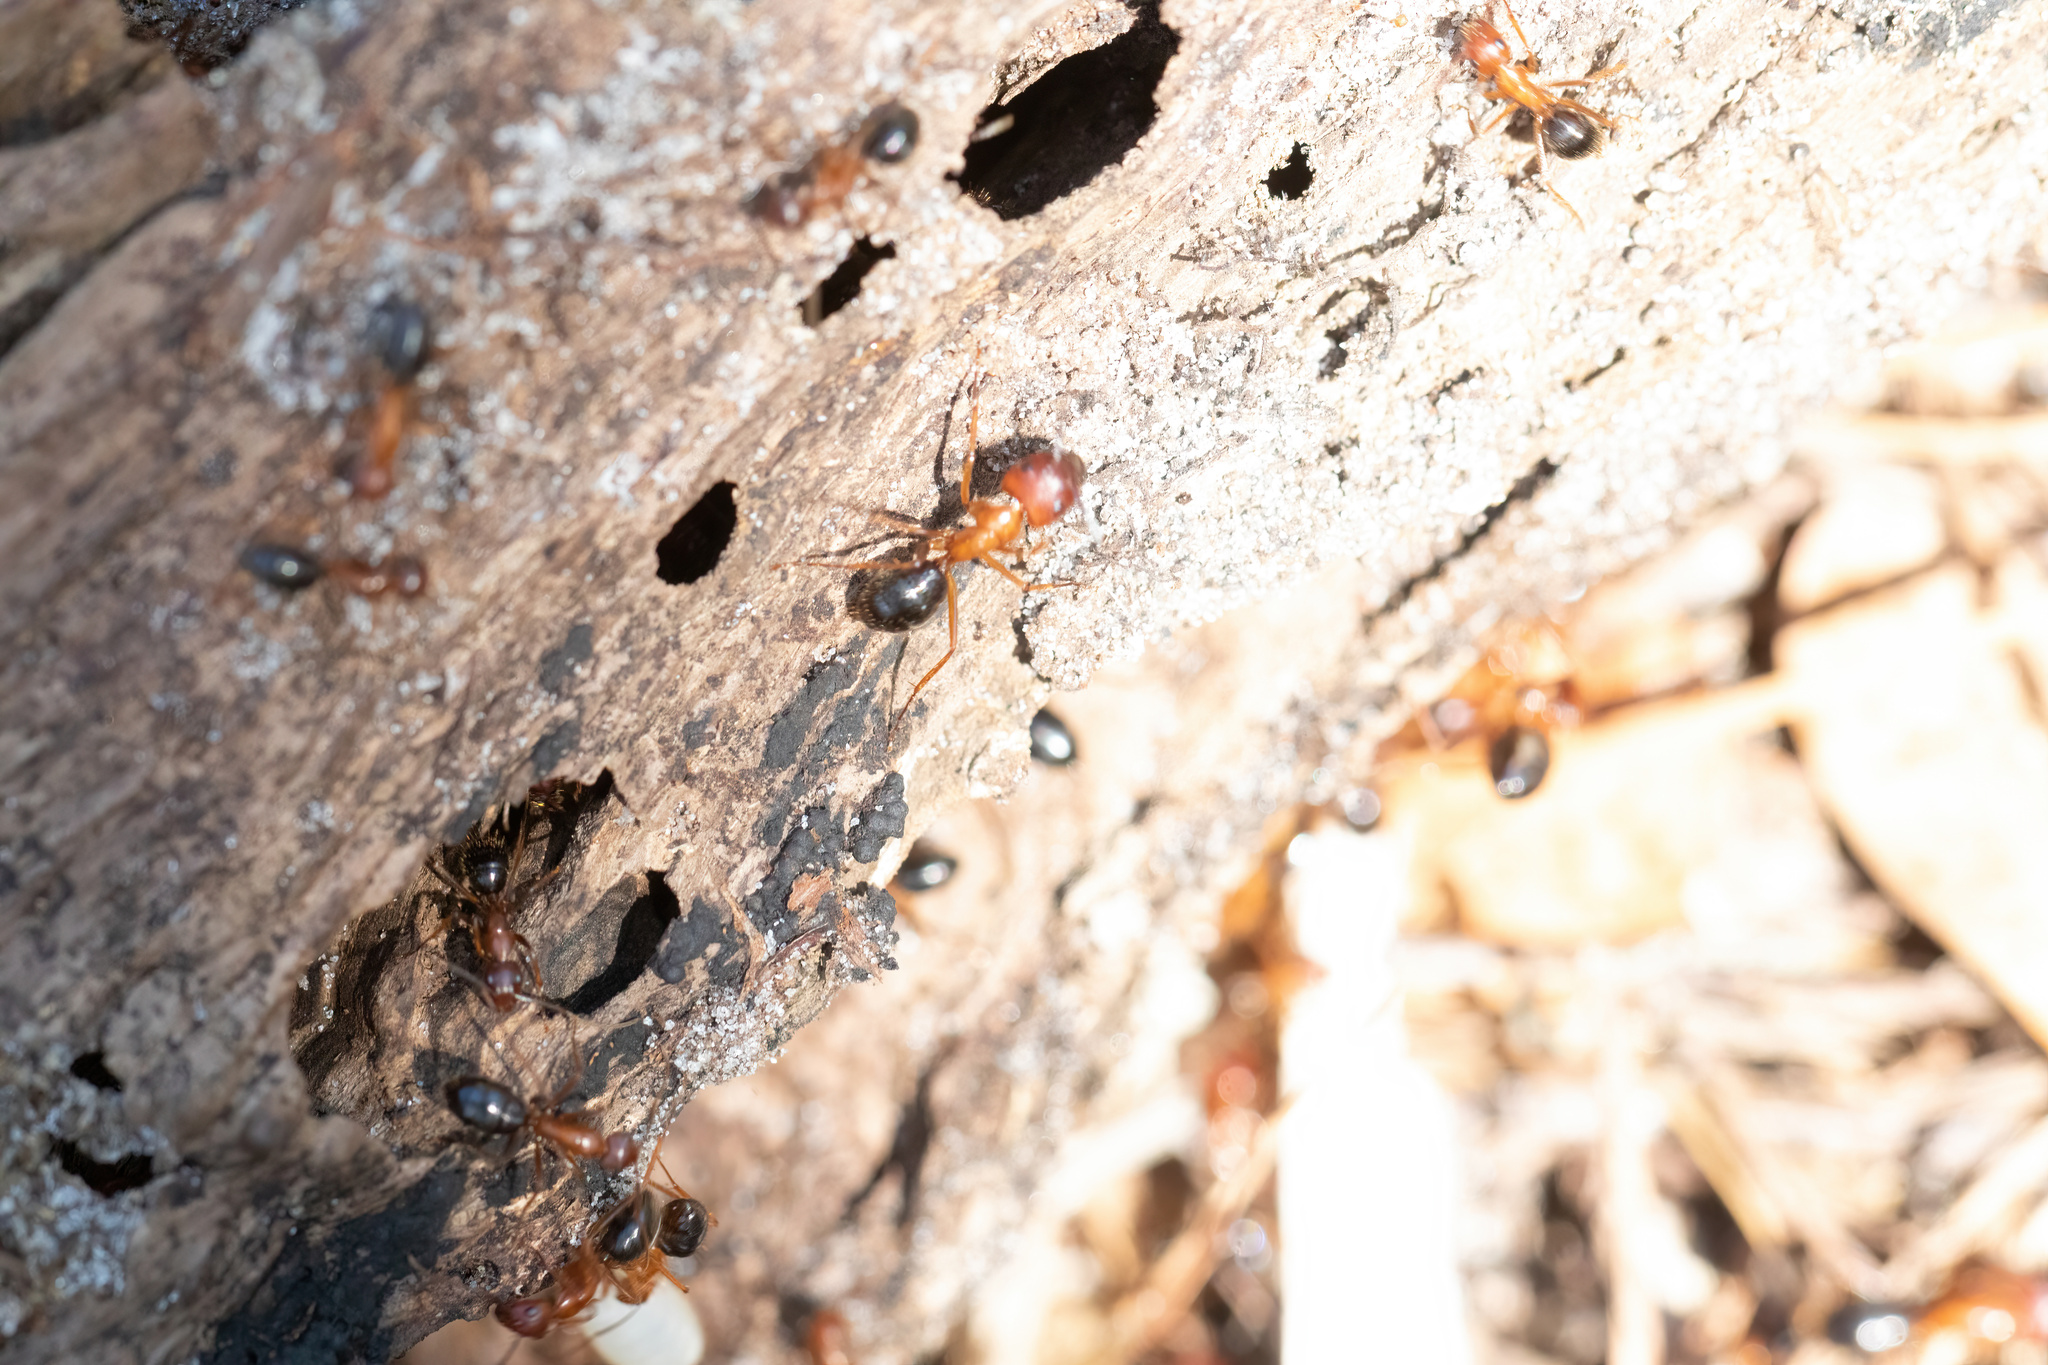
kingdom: Animalia
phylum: Arthropoda
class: Insecta
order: Hymenoptera
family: Formicidae
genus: Camponotus
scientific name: Camponotus floridanus
